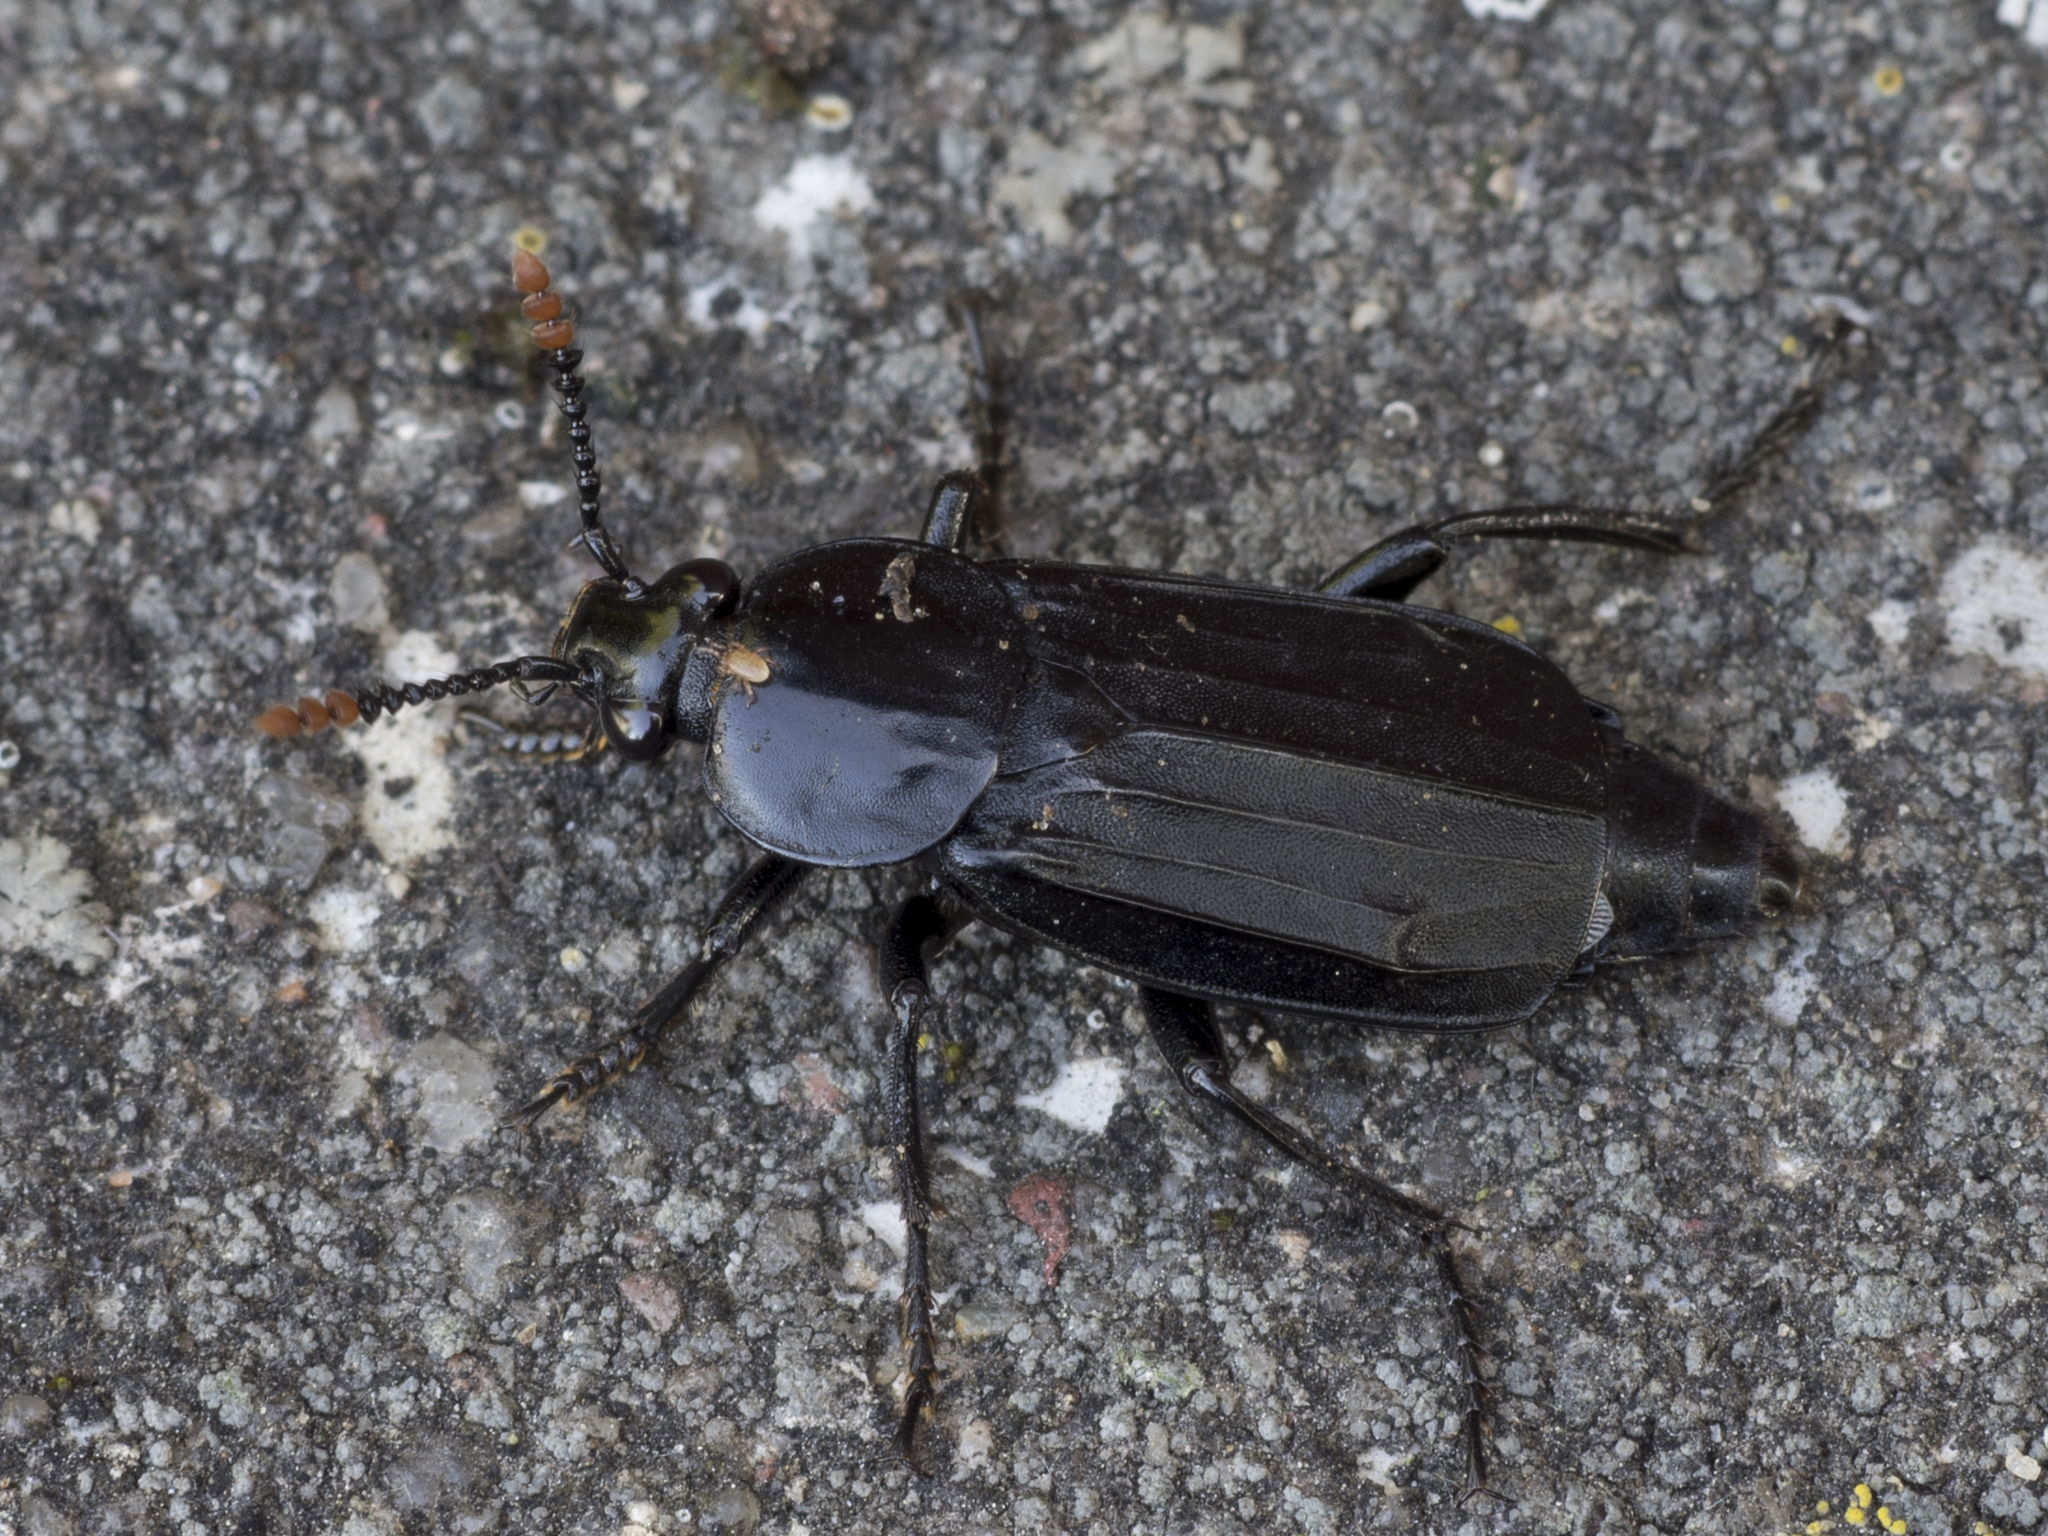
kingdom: Animalia
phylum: Arthropoda
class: Insecta
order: Coleoptera
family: Staphylinidae
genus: Necrodes
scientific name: Necrodes littoralis
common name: Shore sexton beetle
